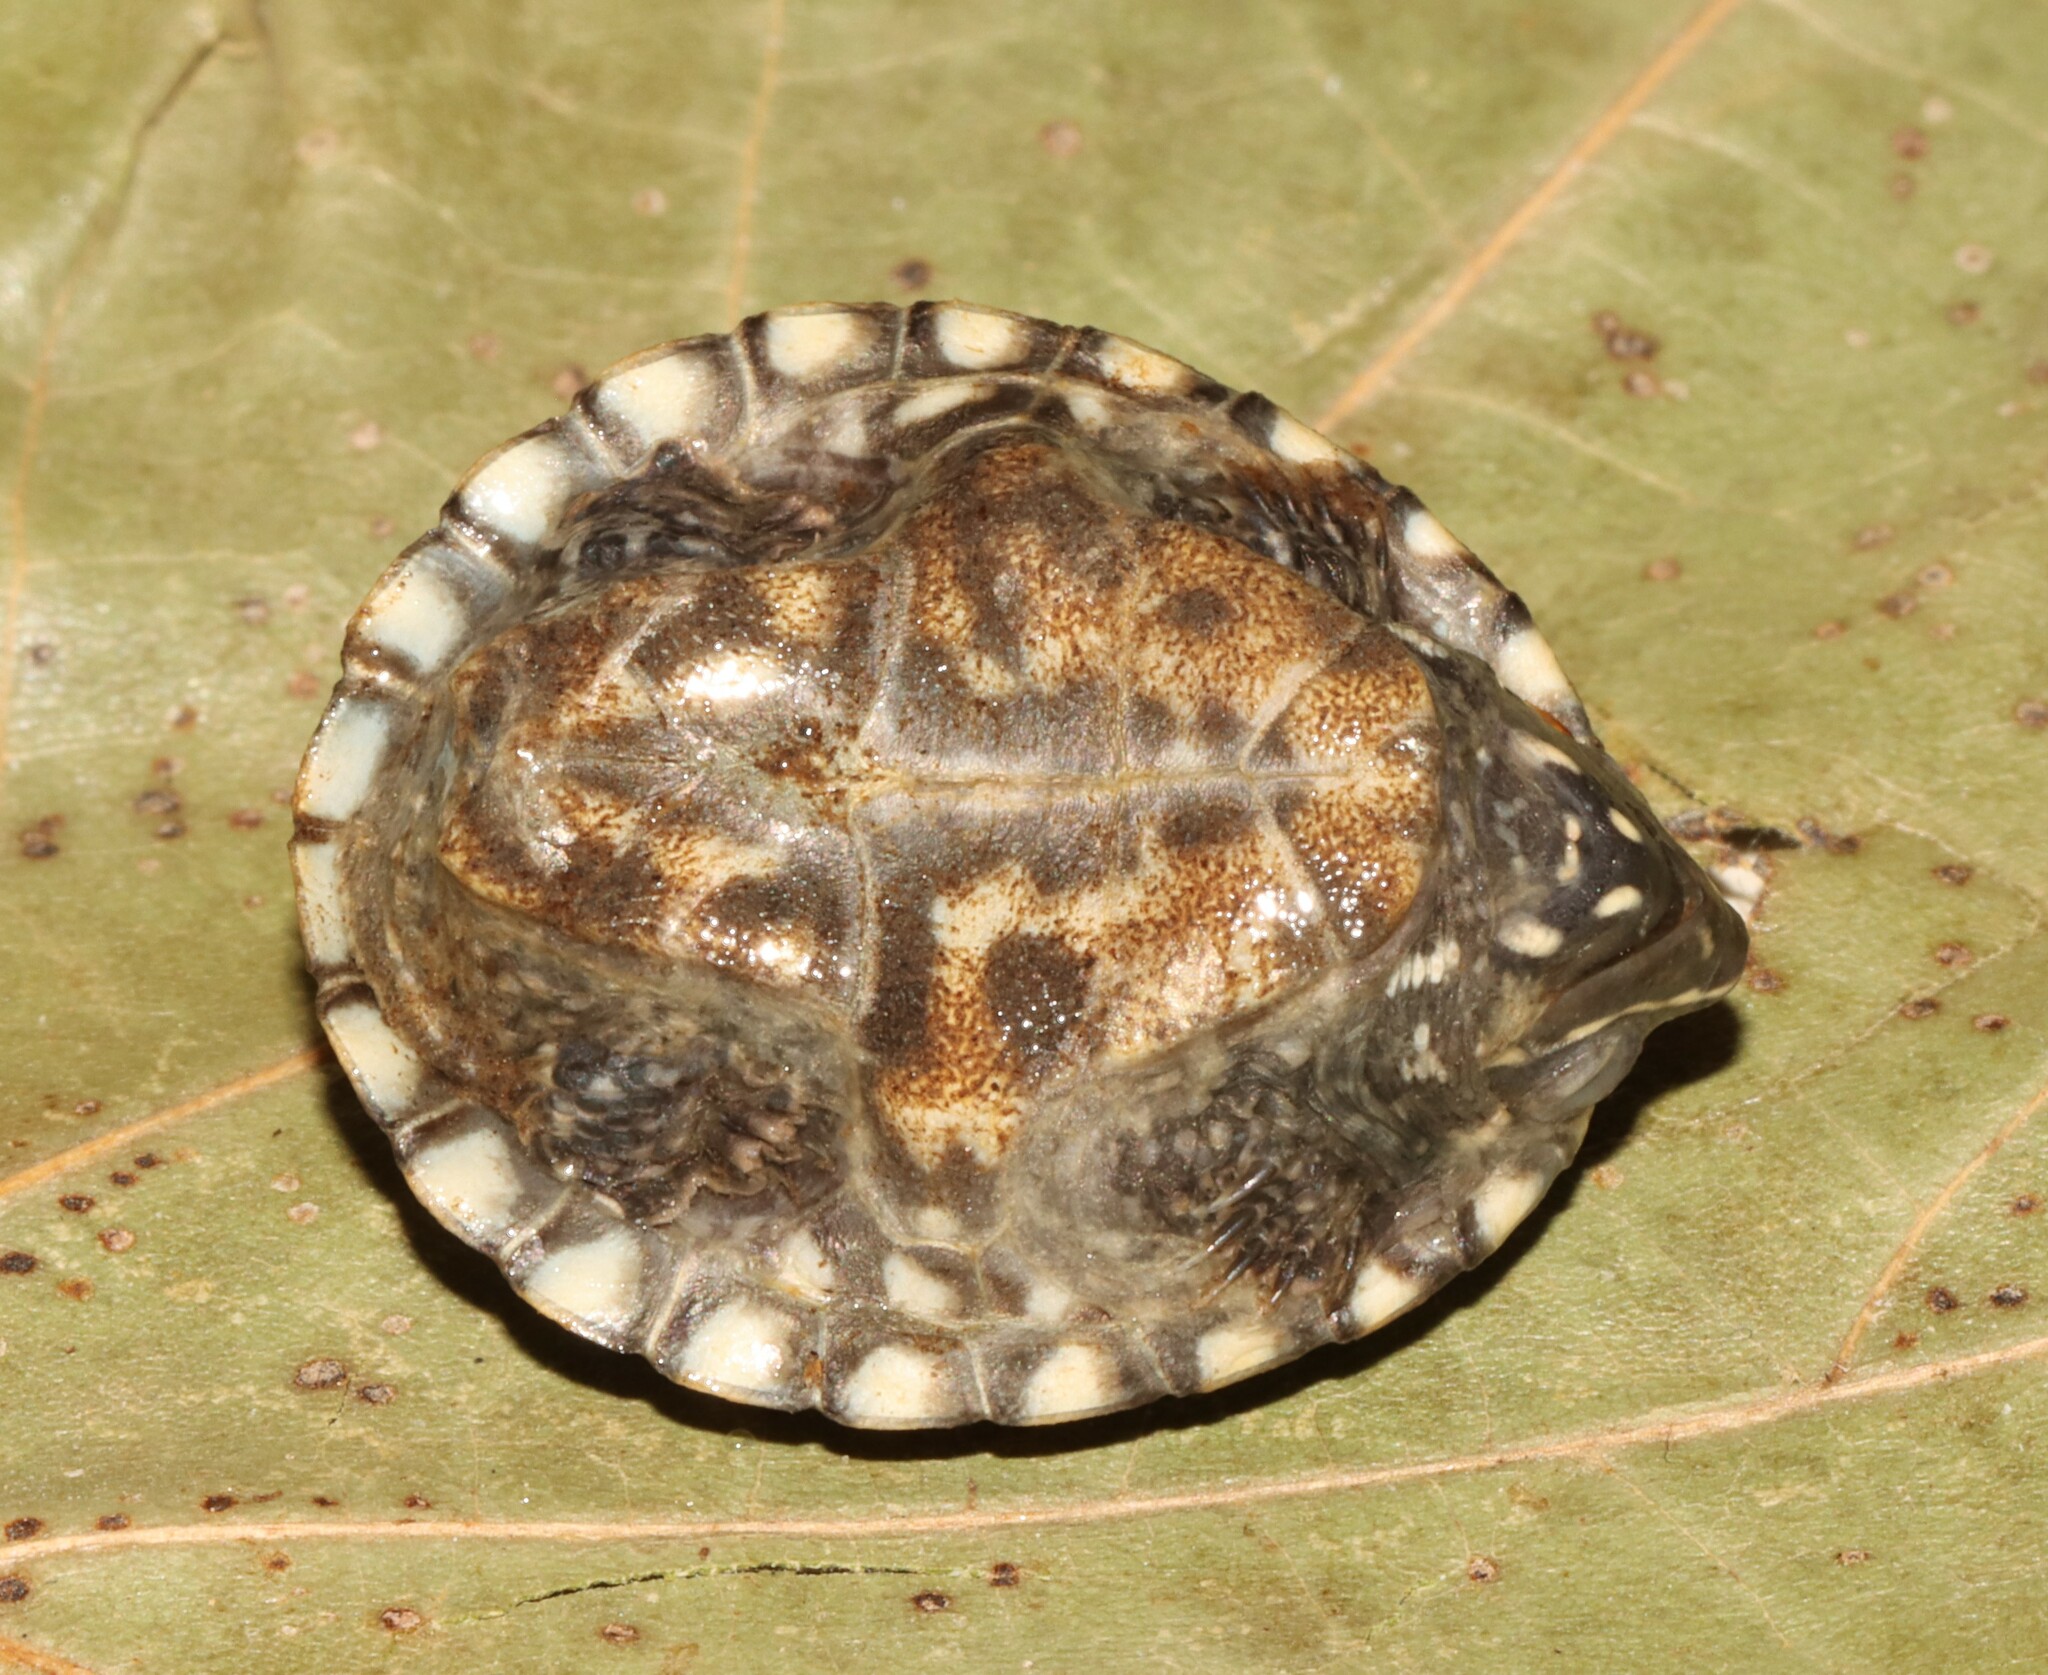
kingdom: Animalia
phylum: Chordata
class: Testudines
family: Kinosternidae
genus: Sternotherus
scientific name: Sternotherus odoratus
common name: Common musk turtle
